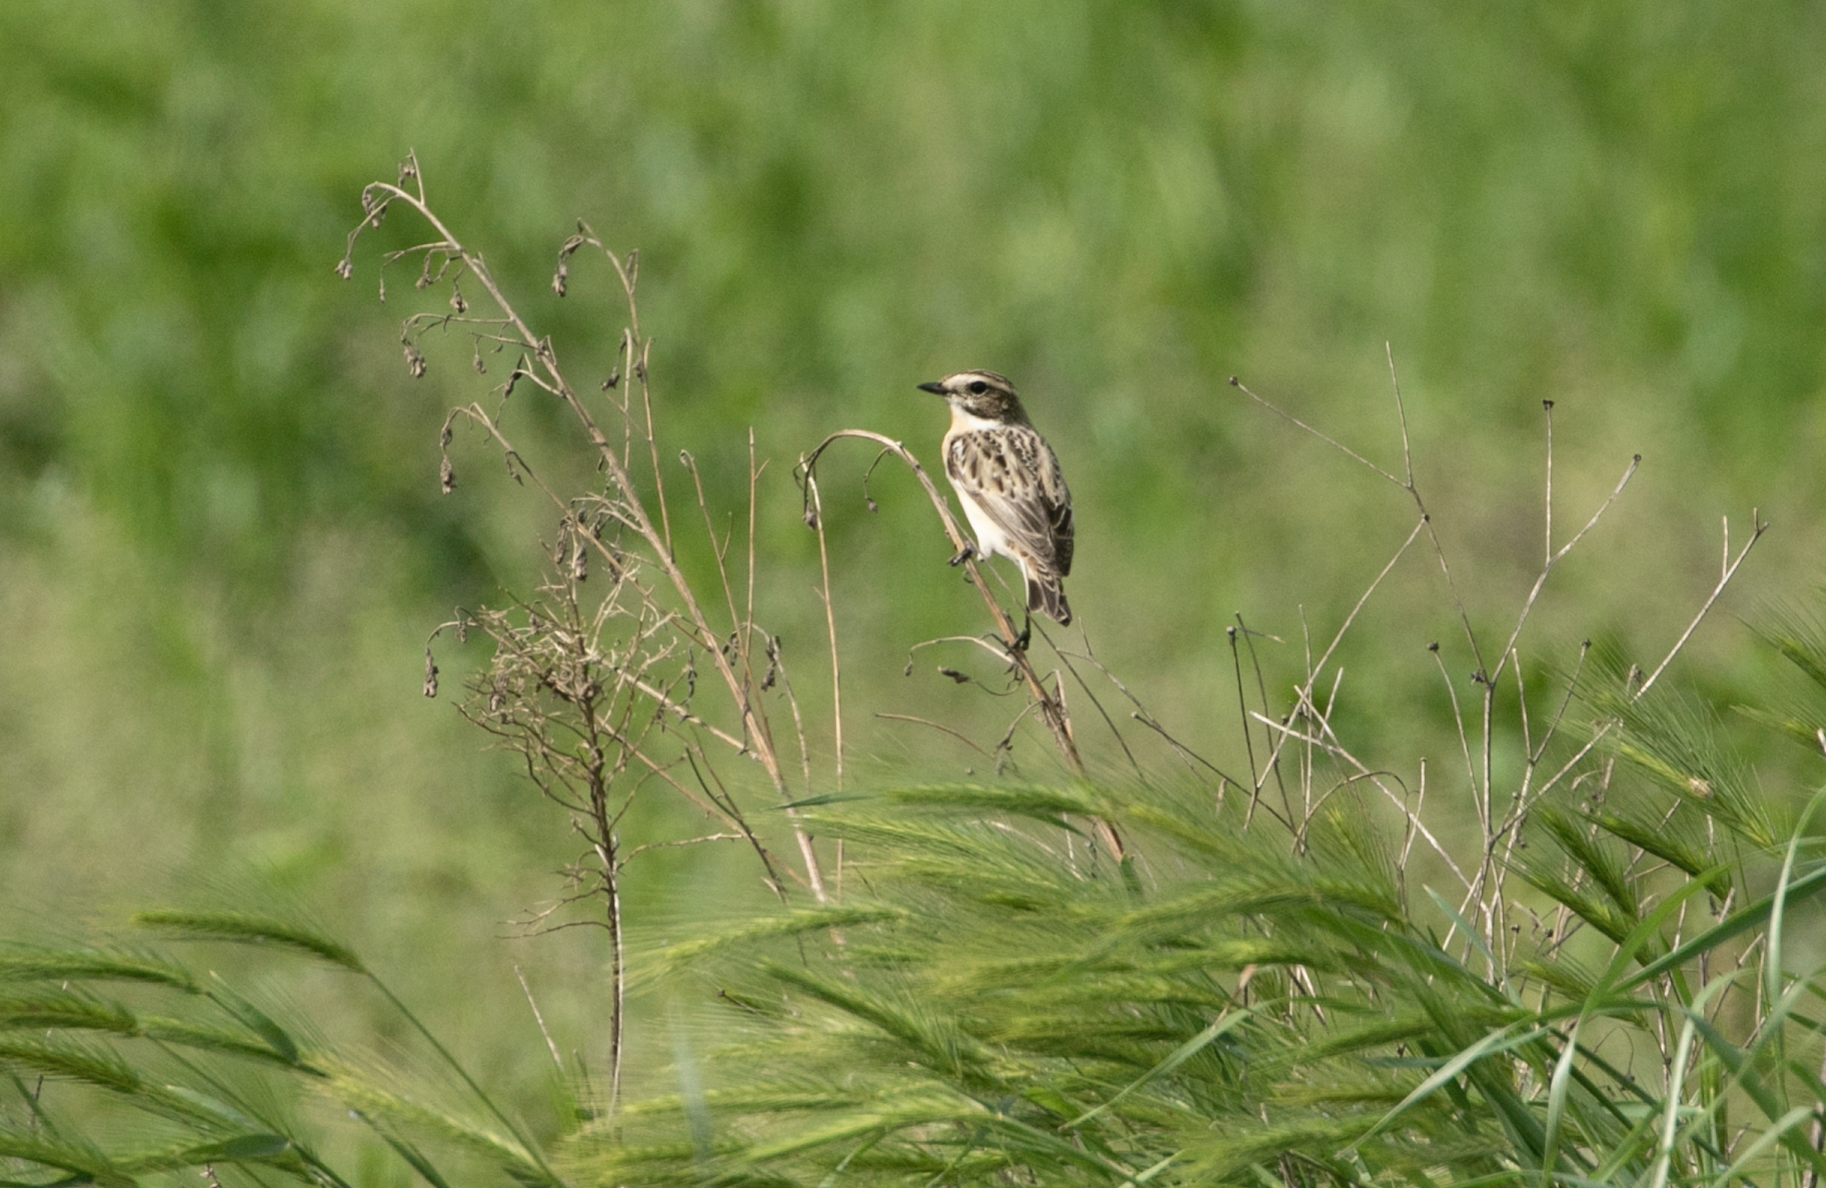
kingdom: Animalia
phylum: Chordata
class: Aves
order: Passeriformes
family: Muscicapidae
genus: Saxicola
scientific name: Saxicola rubetra
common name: Whinchat
